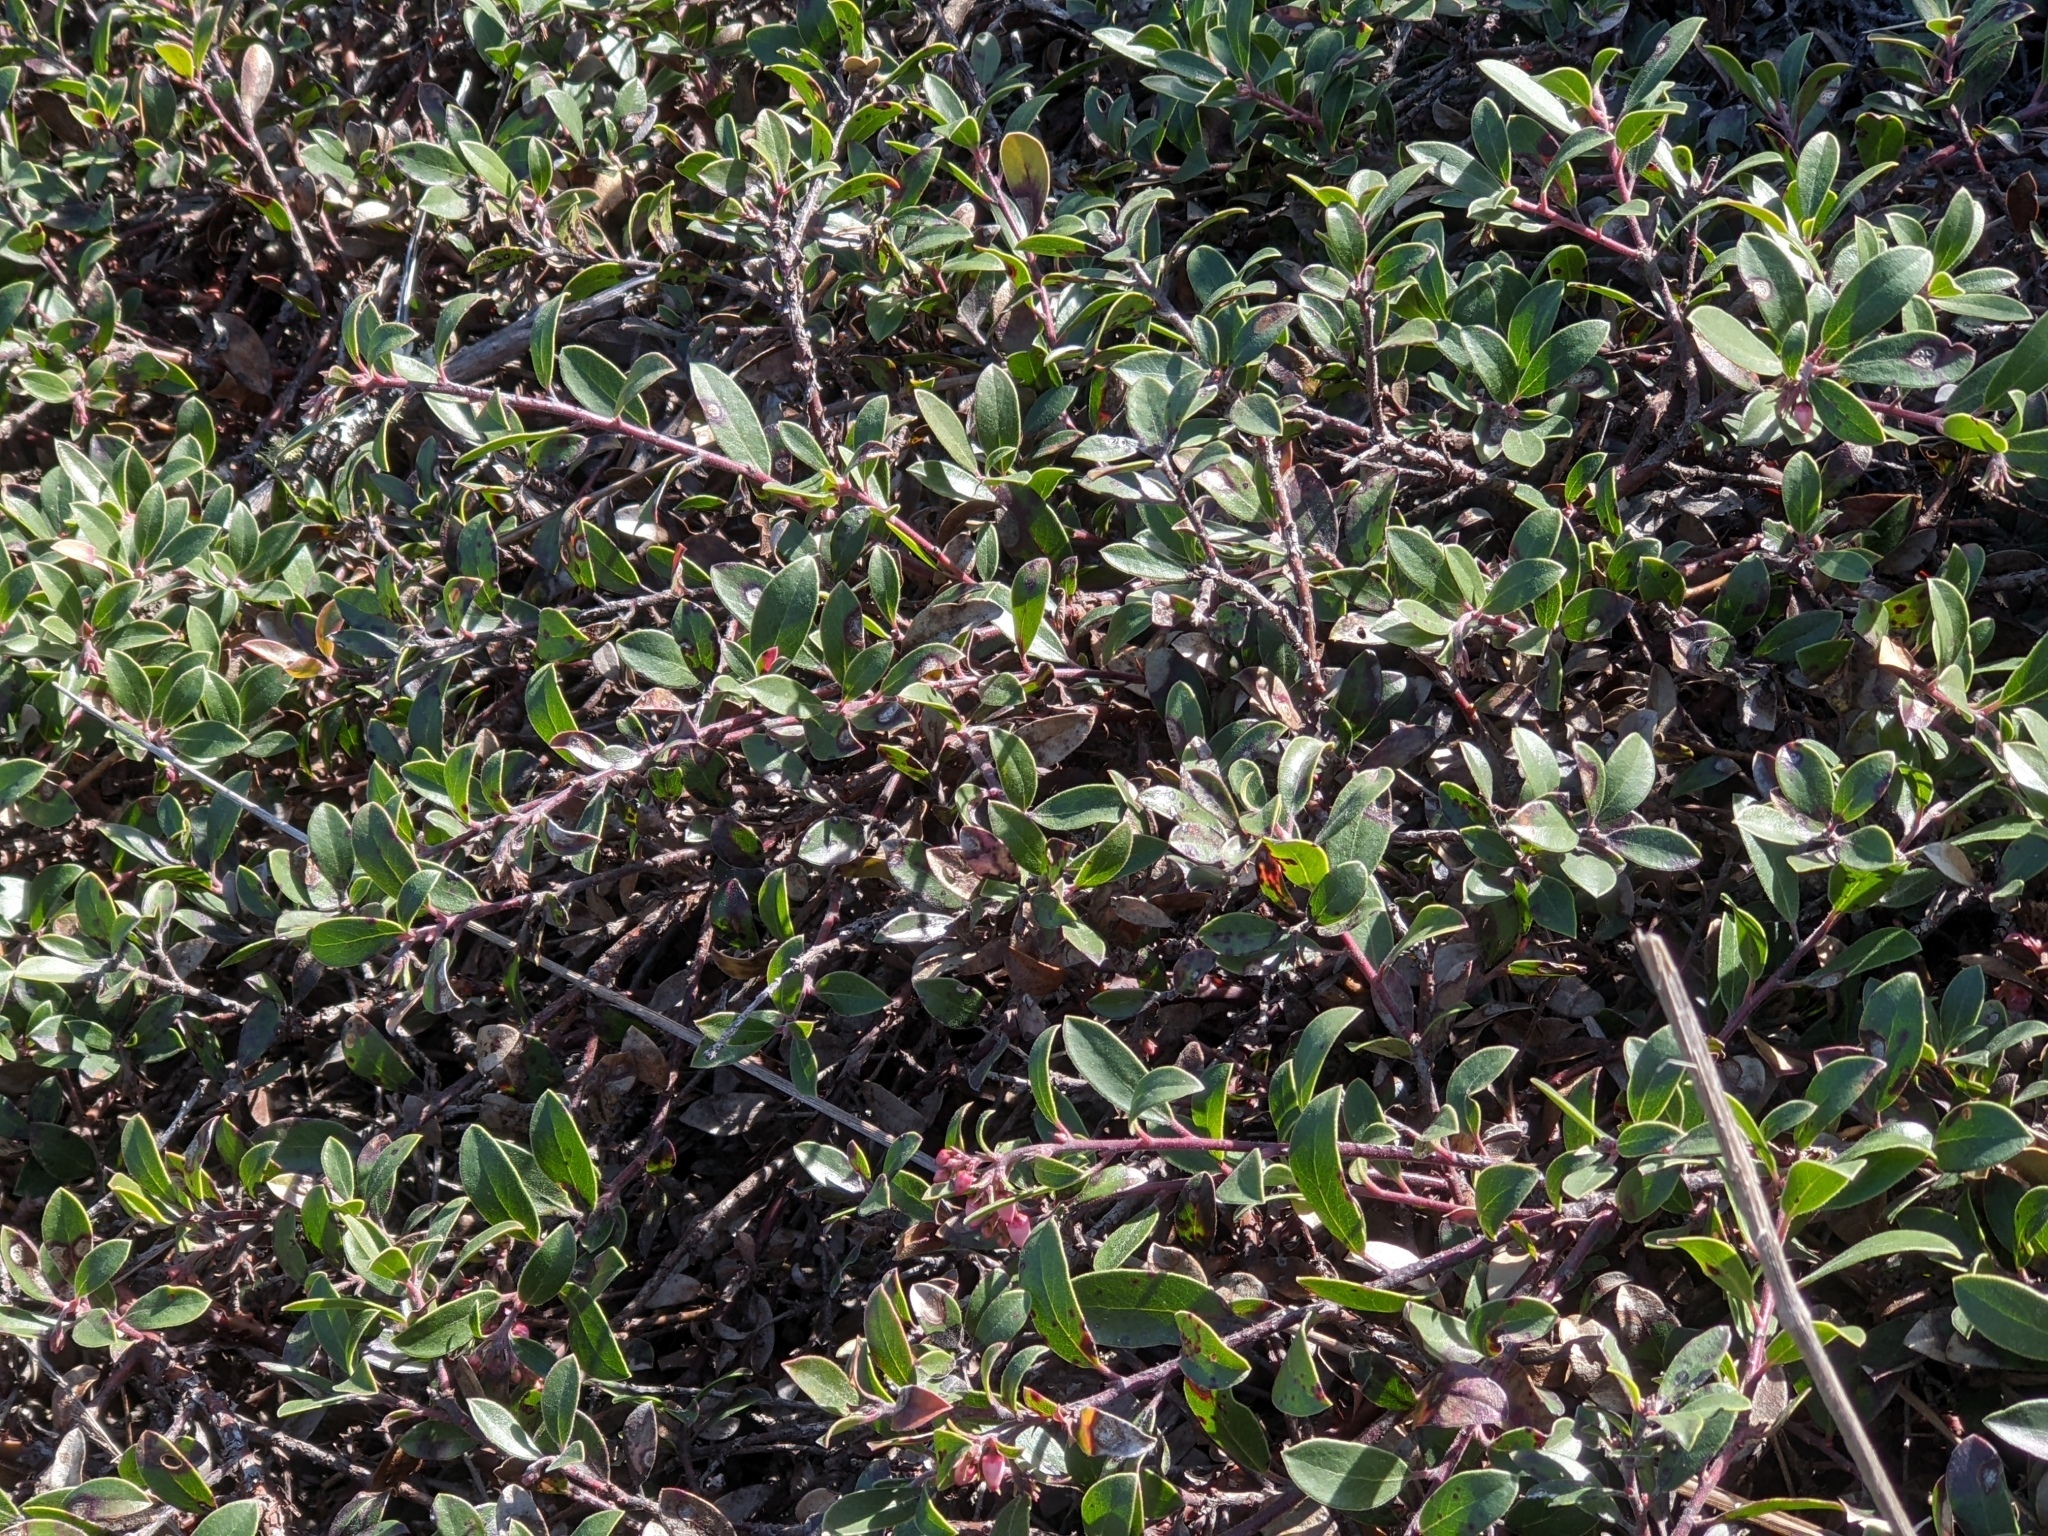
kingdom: Plantae
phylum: Tracheophyta
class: Magnoliopsida
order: Ericales
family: Ericaceae
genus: Arctostaphylos
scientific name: Arctostaphylos uva-ursi
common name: Bearberry
